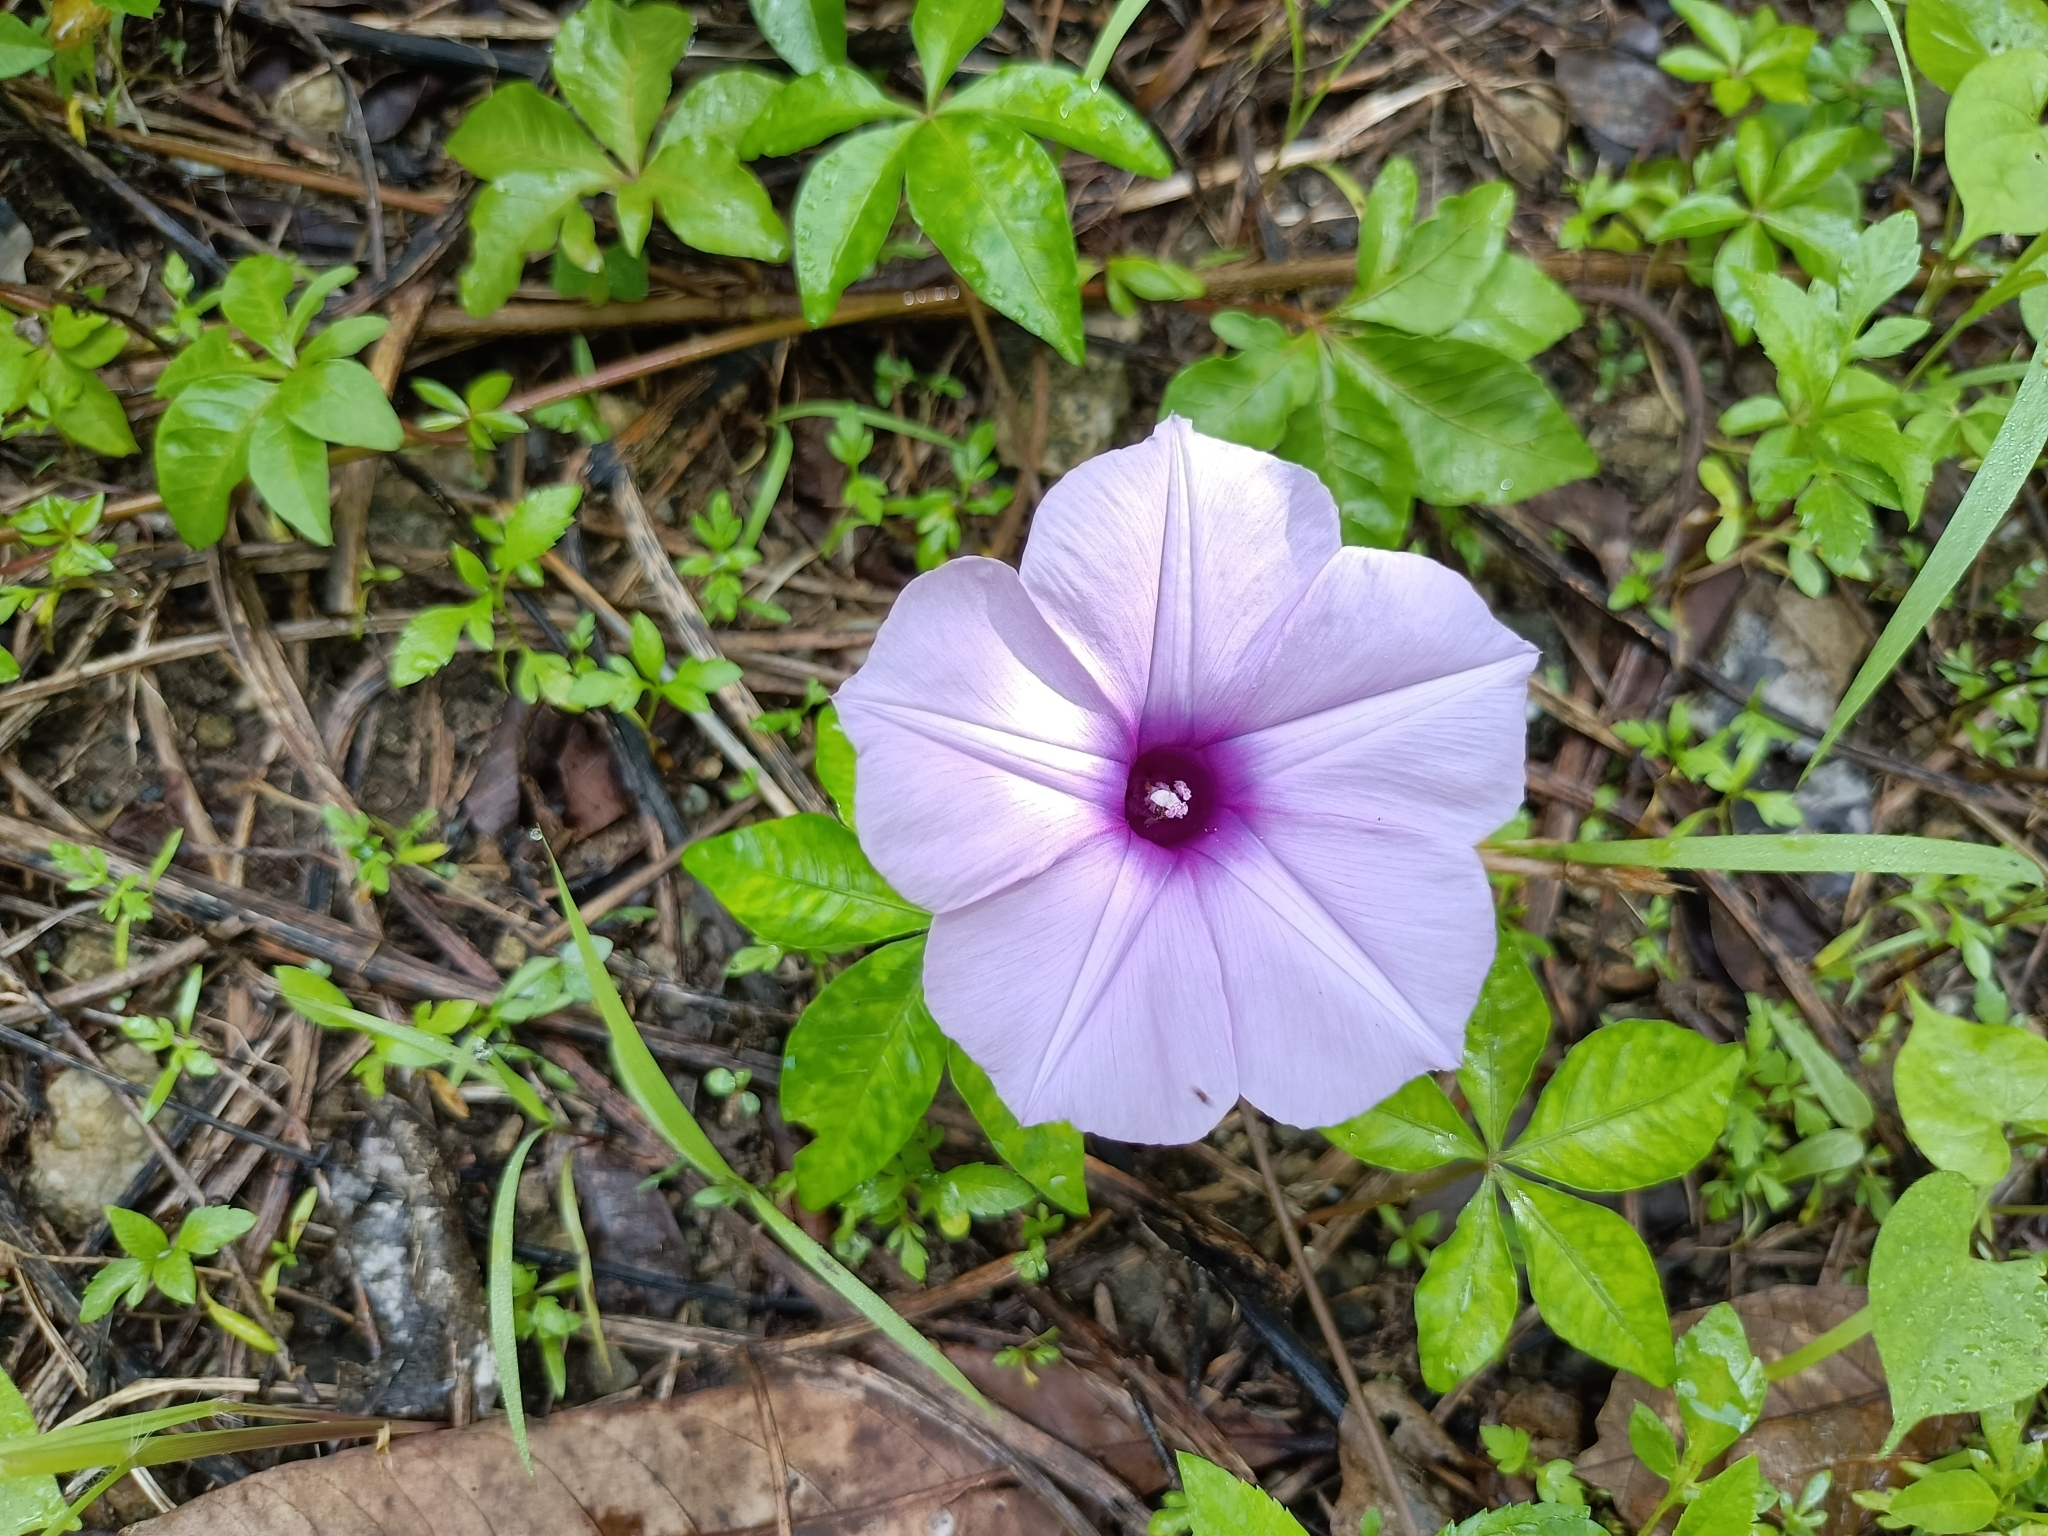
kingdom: Plantae
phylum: Tracheophyta
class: Magnoliopsida
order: Solanales
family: Convolvulaceae
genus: Ipomoea
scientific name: Ipomoea cairica
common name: Mile a minute vine
